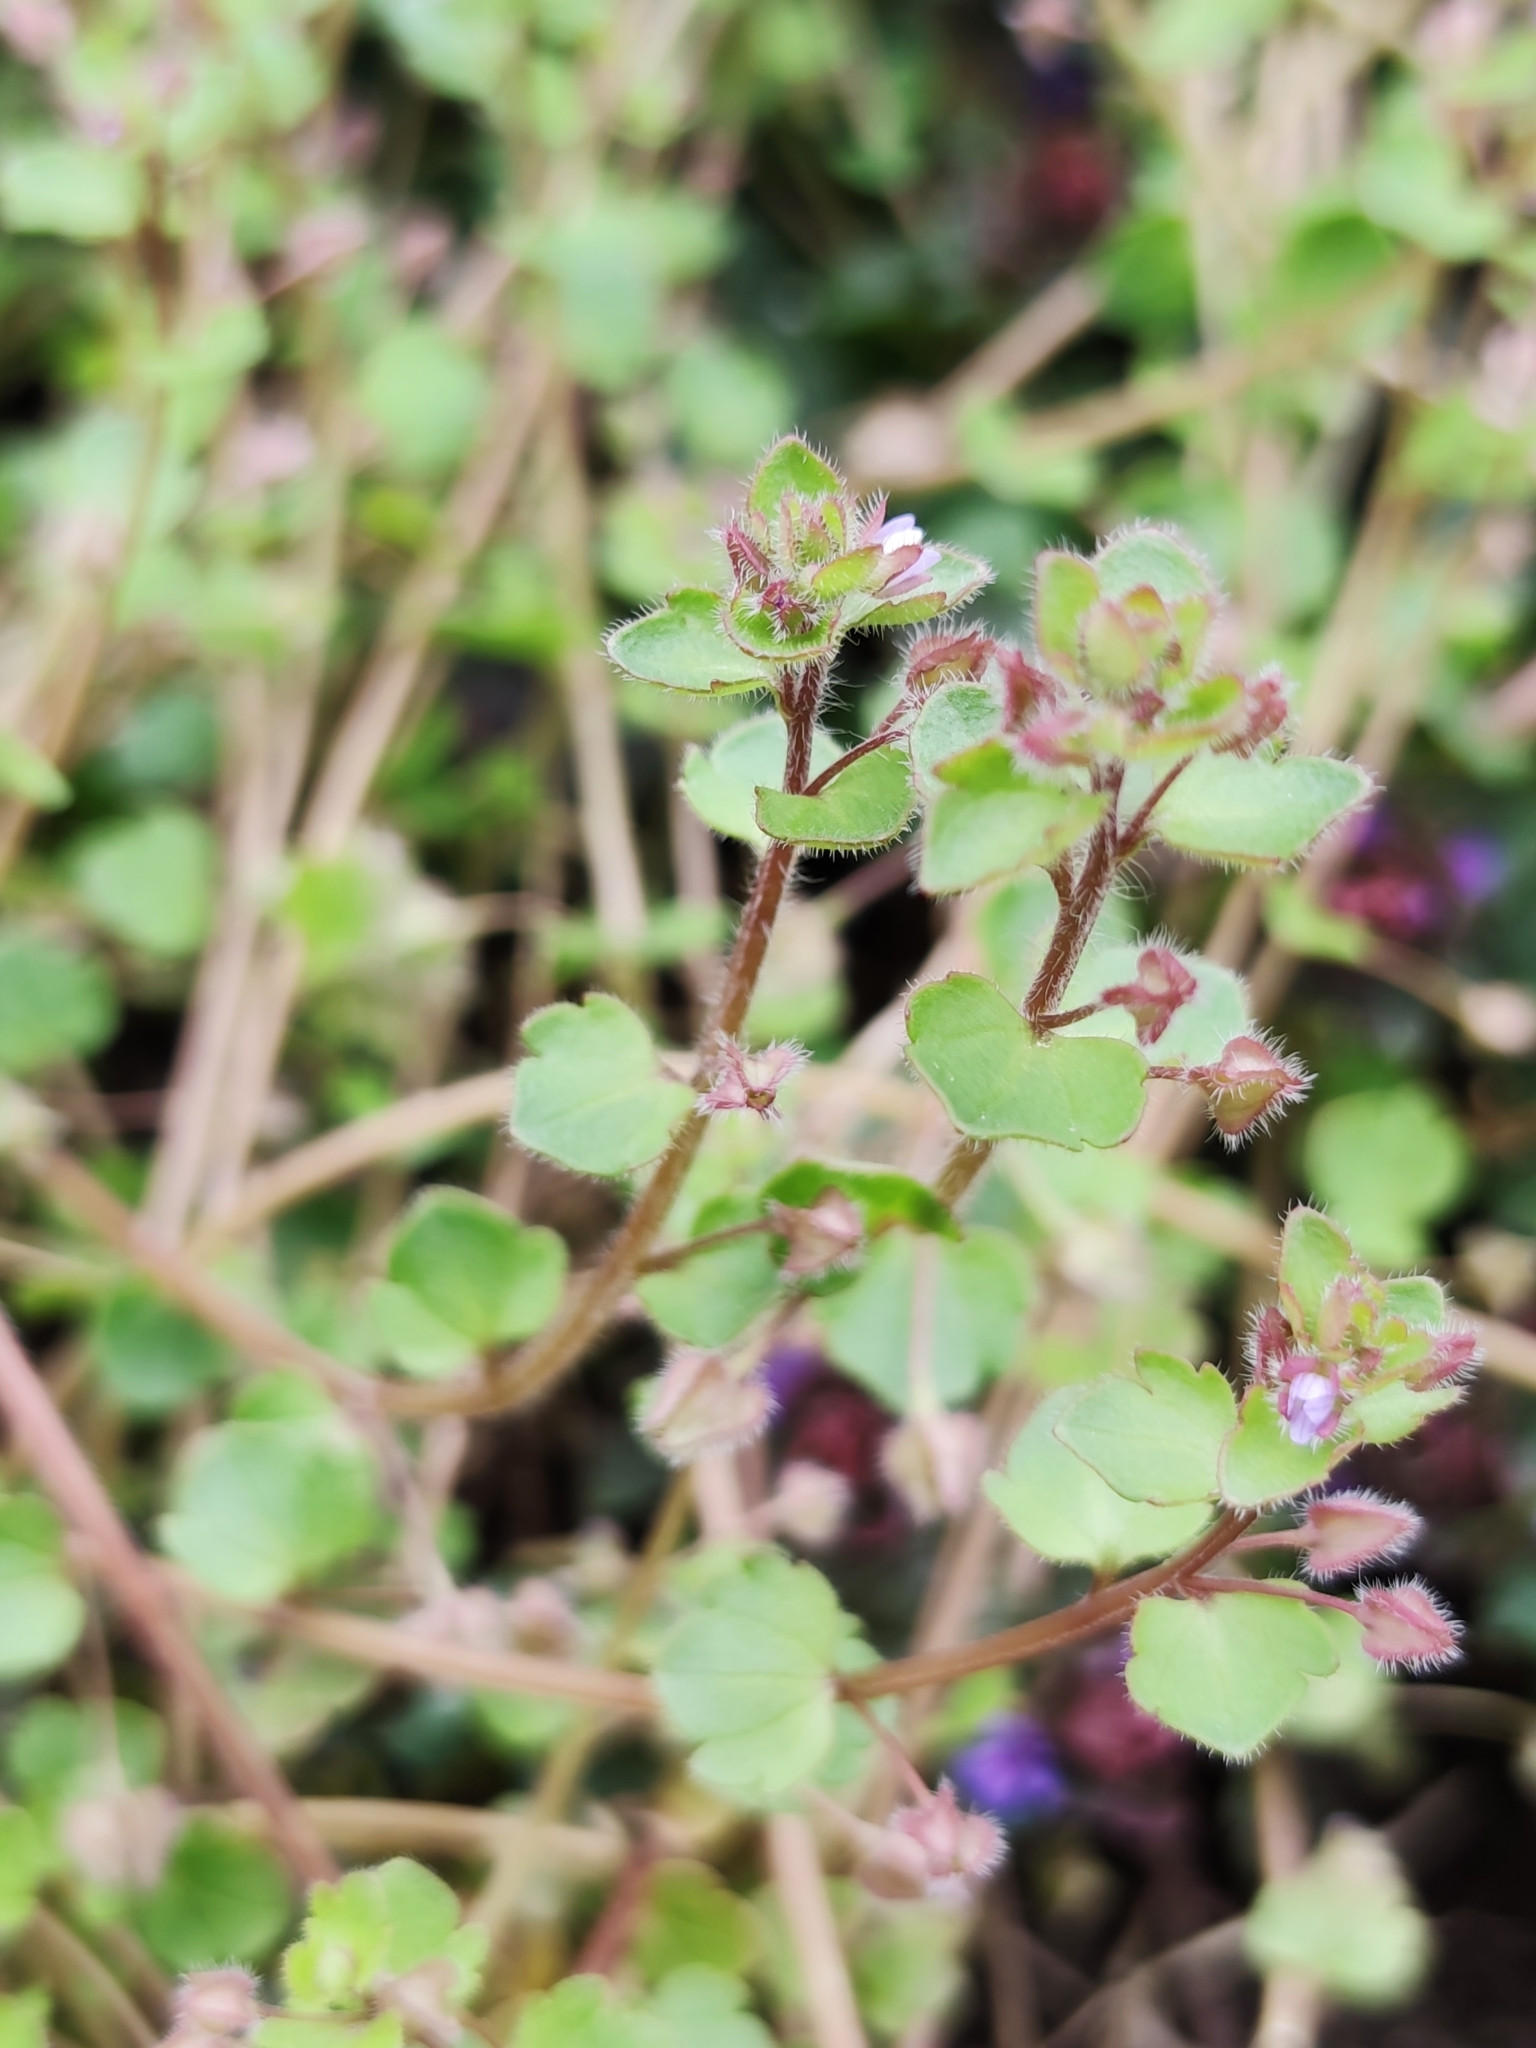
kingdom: Plantae
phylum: Tracheophyta
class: Magnoliopsida
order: Lamiales
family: Plantaginaceae
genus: Veronica
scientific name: Veronica sublobata
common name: False ivy-leaved speedwell
